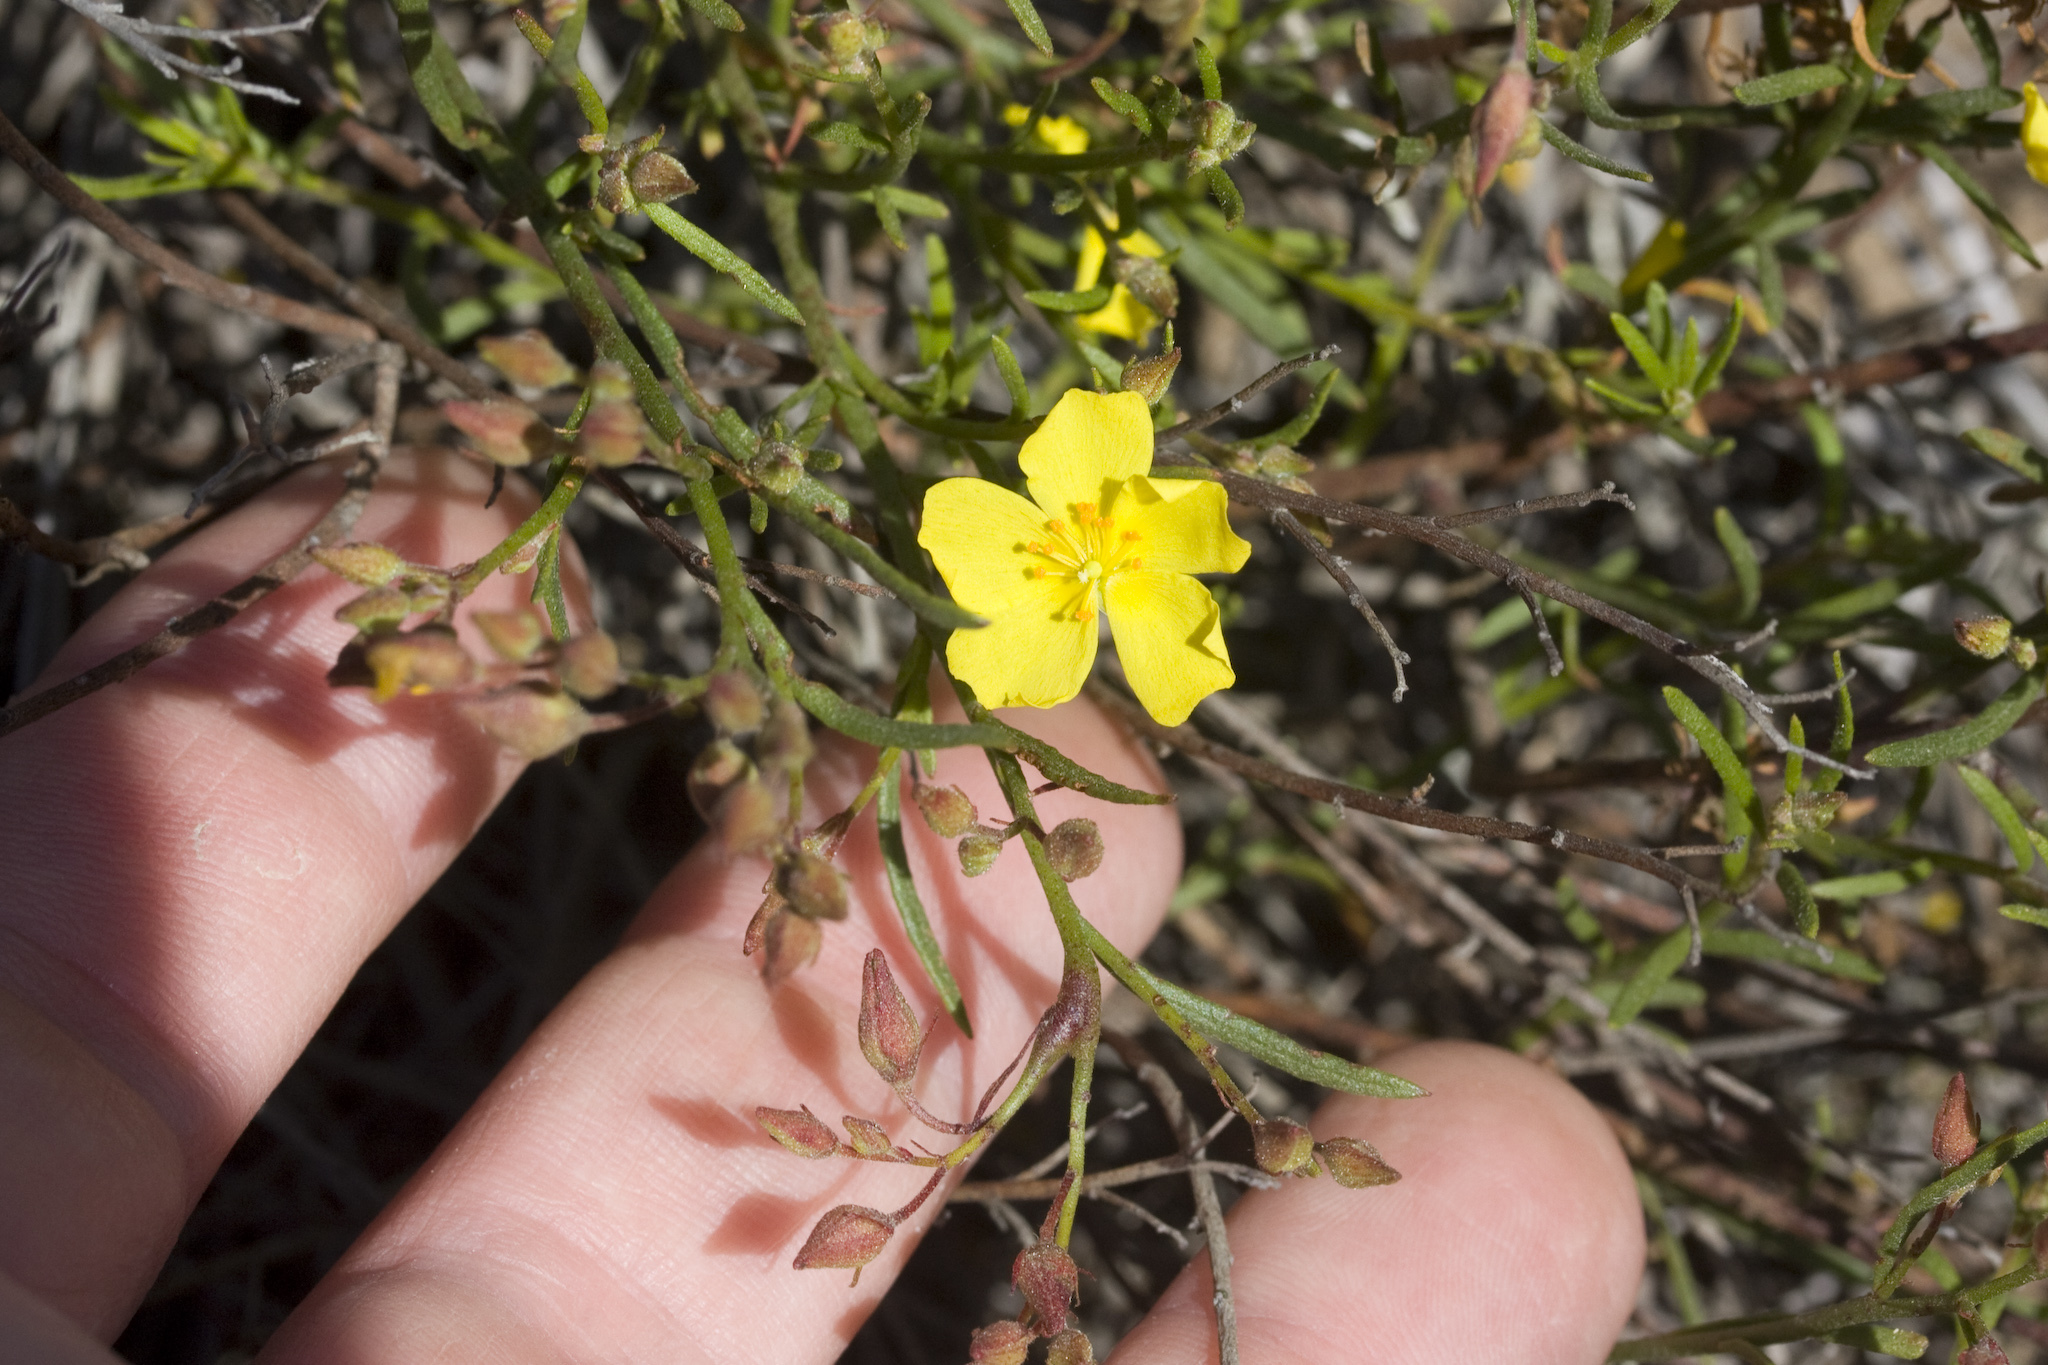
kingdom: Plantae
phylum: Tracheophyta
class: Magnoliopsida
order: Malvales
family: Cistaceae
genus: Crocanthemum
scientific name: Crocanthemum scoparium
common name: Broom-rose
